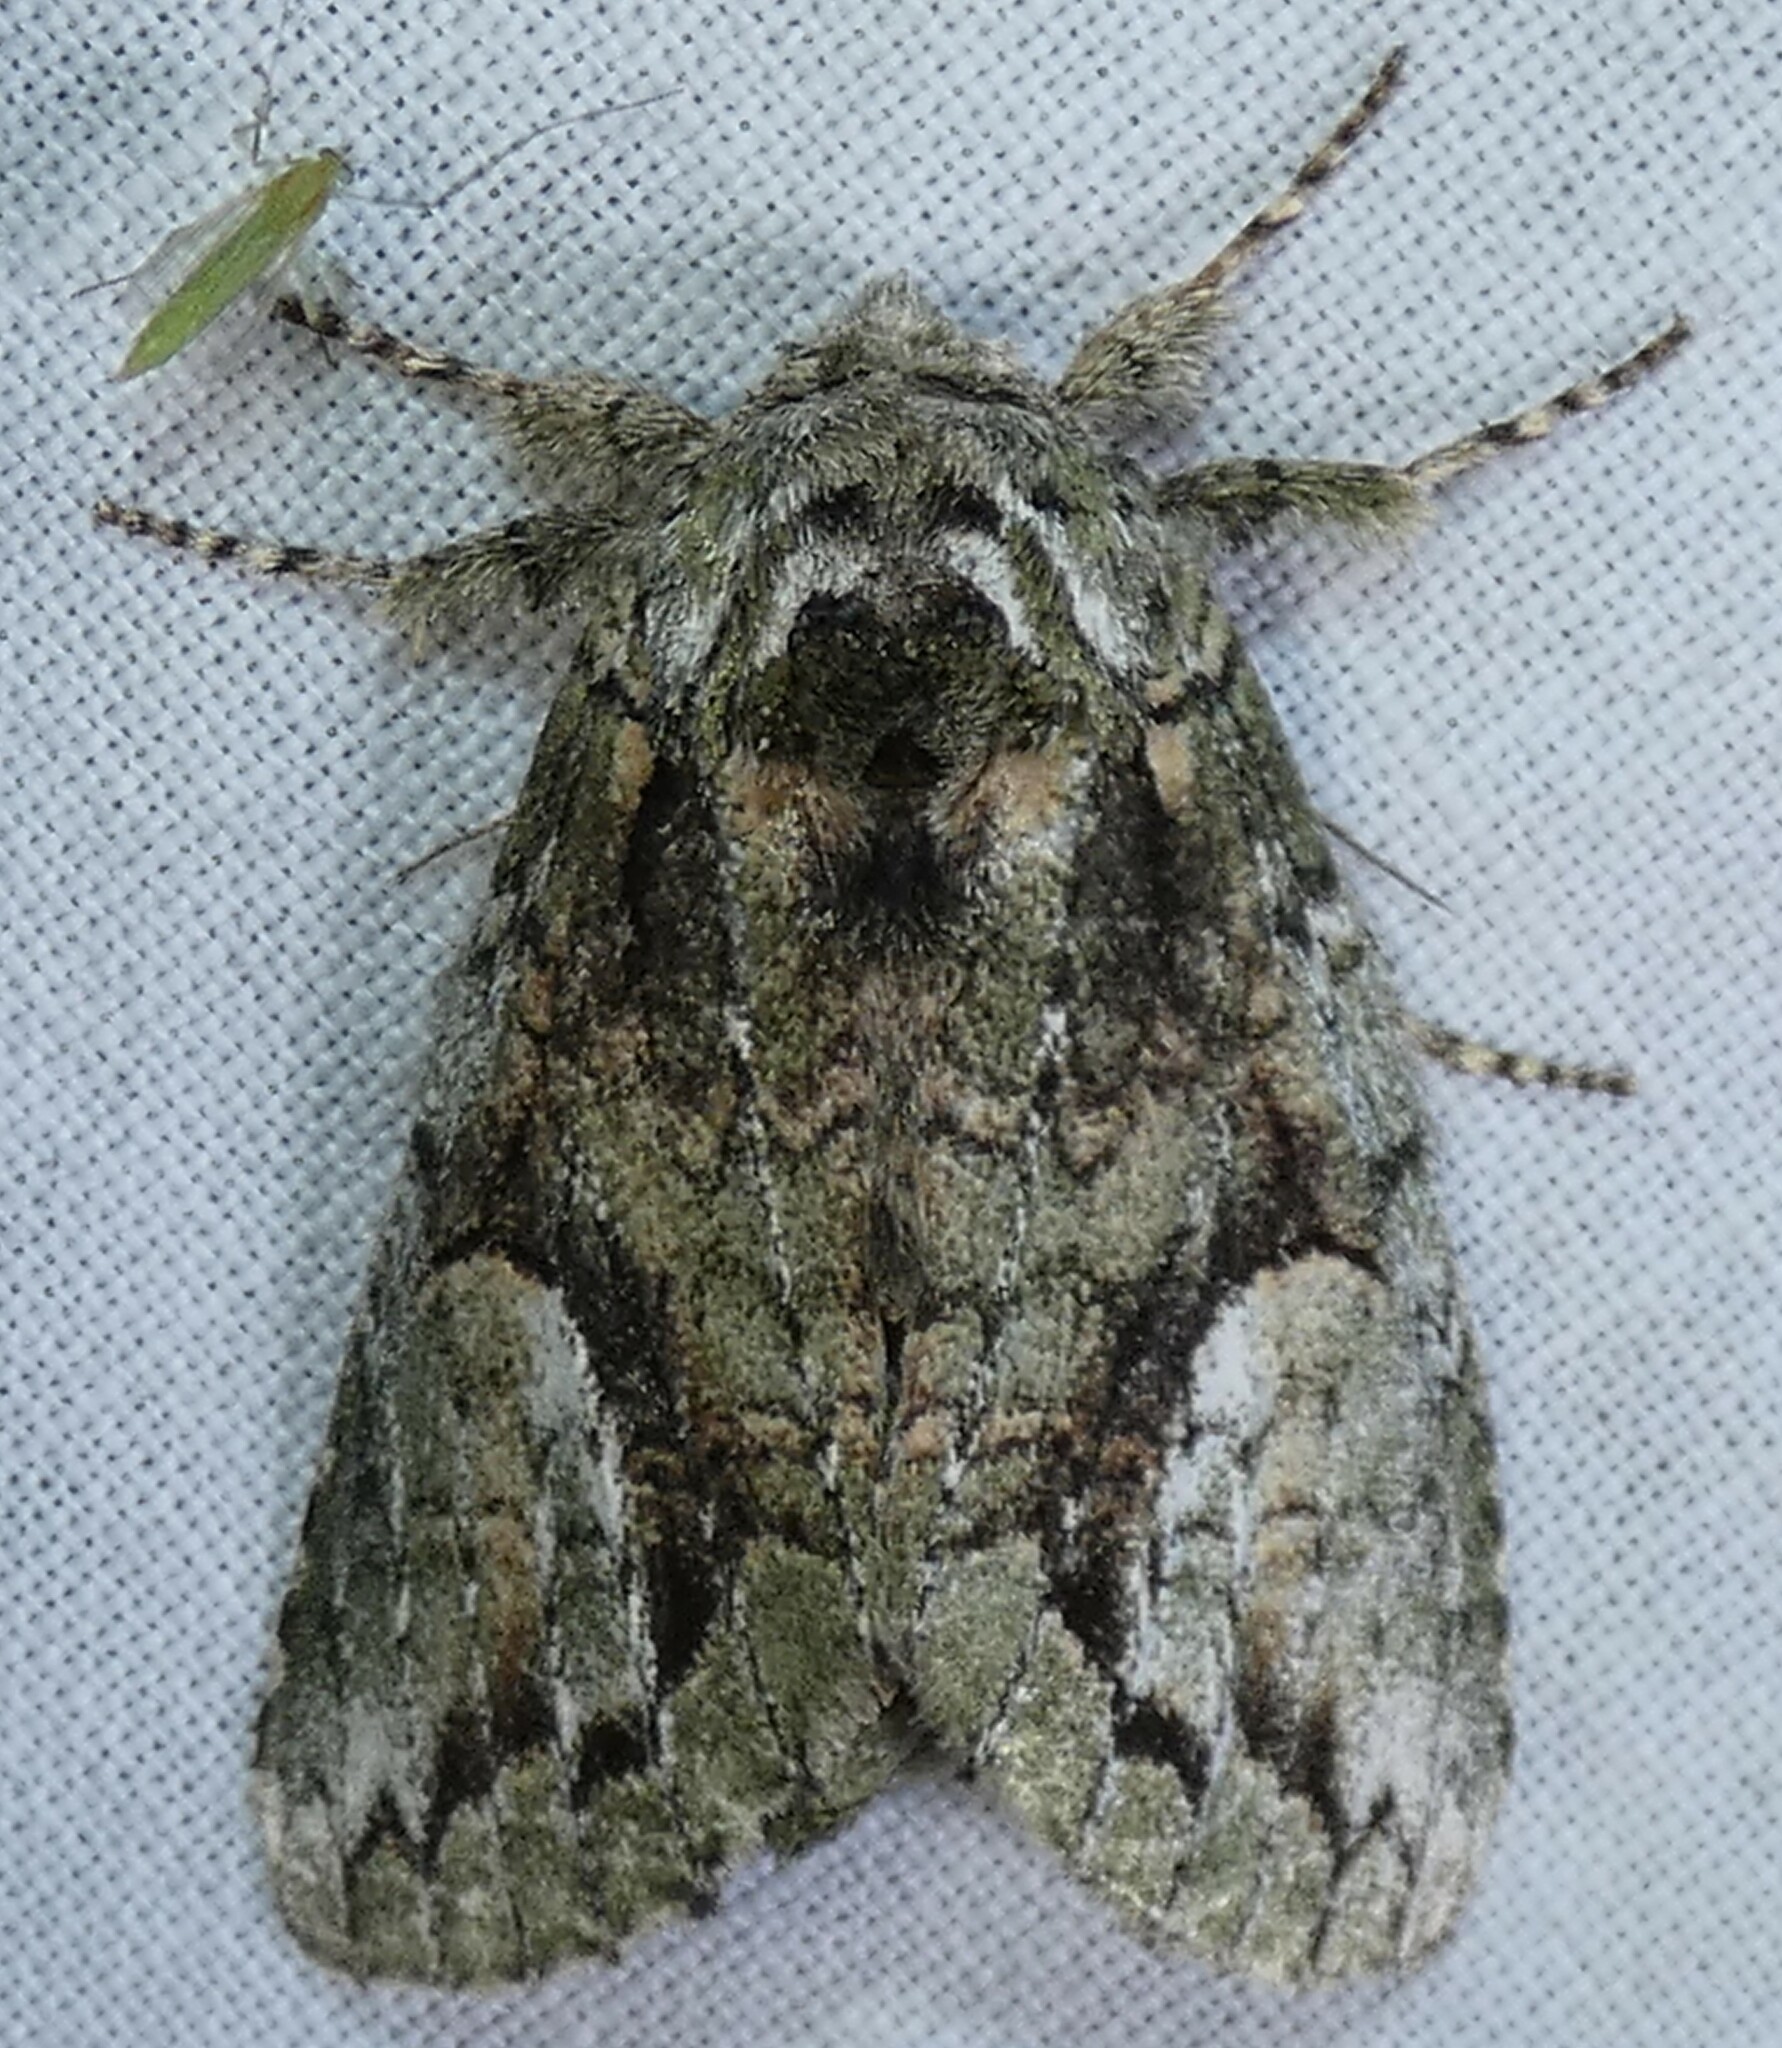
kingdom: Animalia
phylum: Arthropoda
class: Insecta
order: Lepidoptera
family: Notodontidae
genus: Heterocampa
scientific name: Heterocampa
